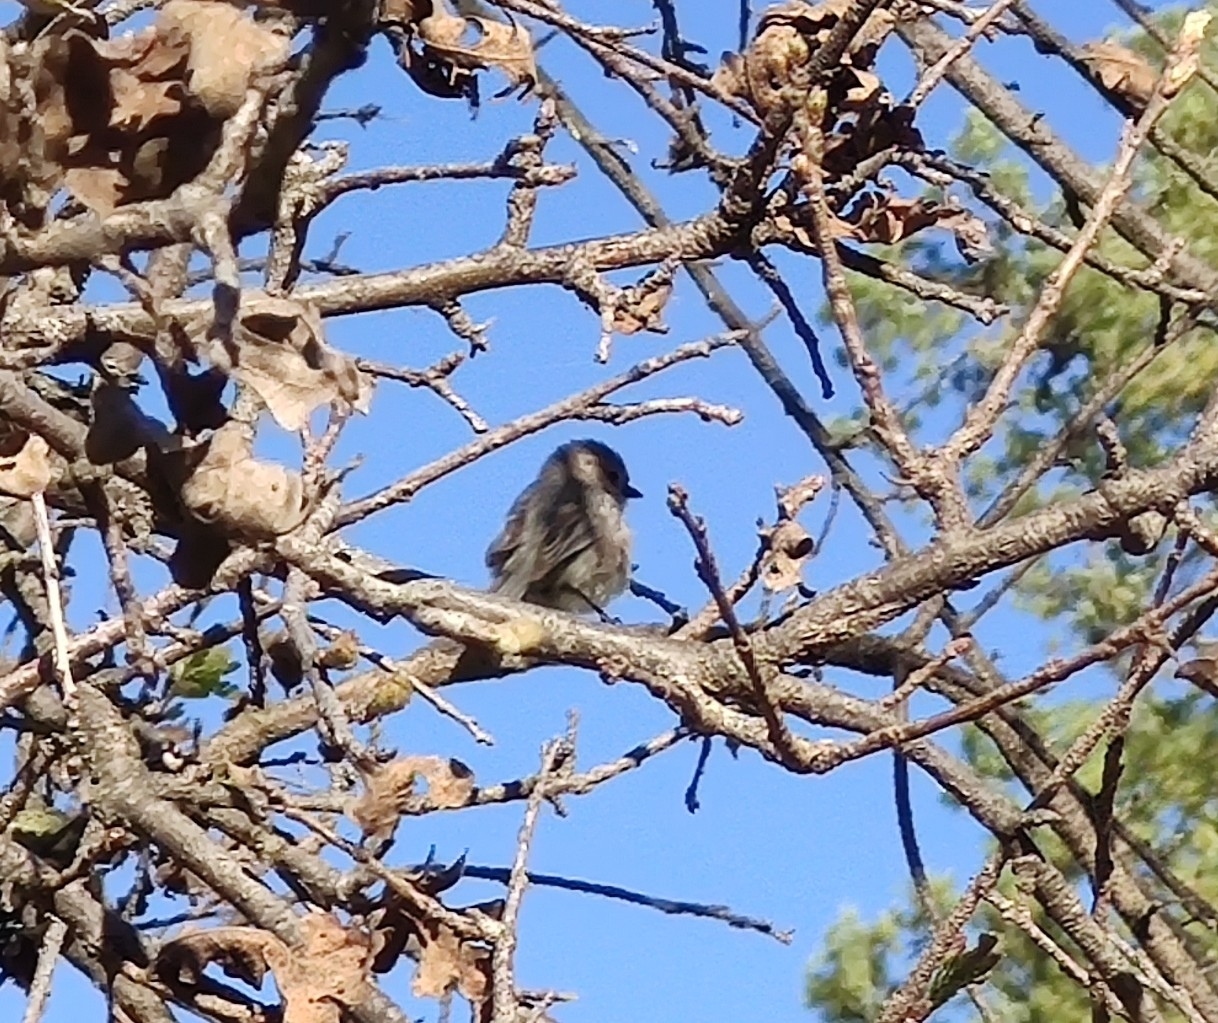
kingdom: Animalia
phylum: Chordata
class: Aves
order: Passeriformes
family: Aegithalidae
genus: Psaltriparus
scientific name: Psaltriparus minimus
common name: American bushtit
